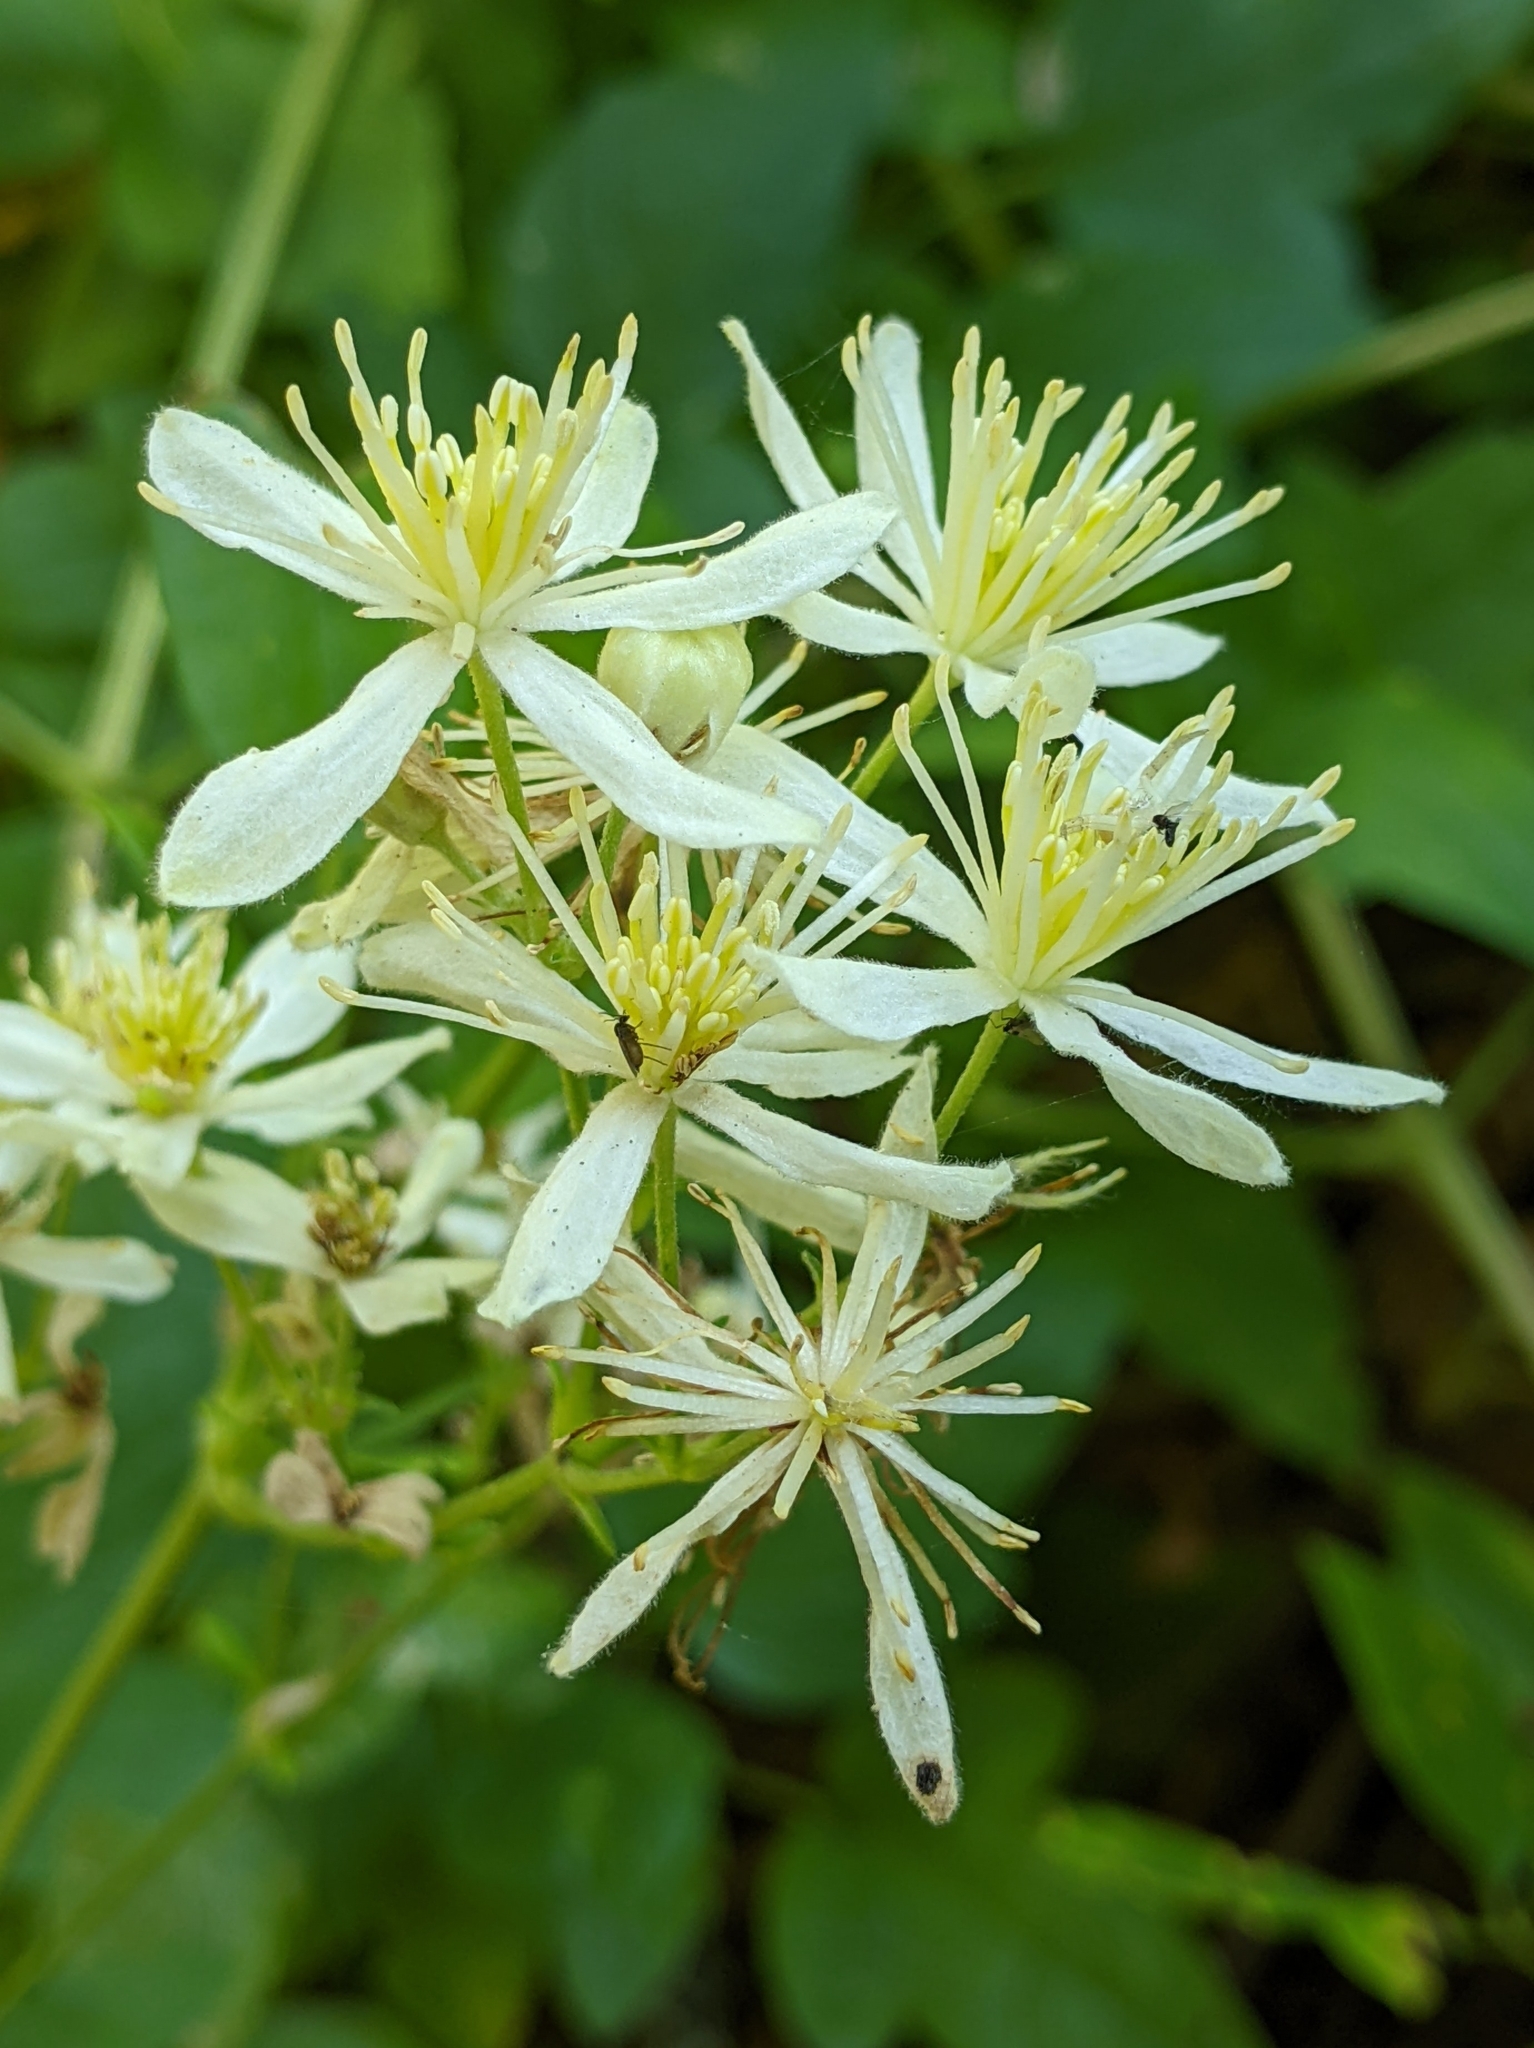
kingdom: Plantae
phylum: Tracheophyta
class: Magnoliopsida
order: Ranunculales
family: Ranunculaceae
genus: Clematis
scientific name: Clematis ligusticifolia
